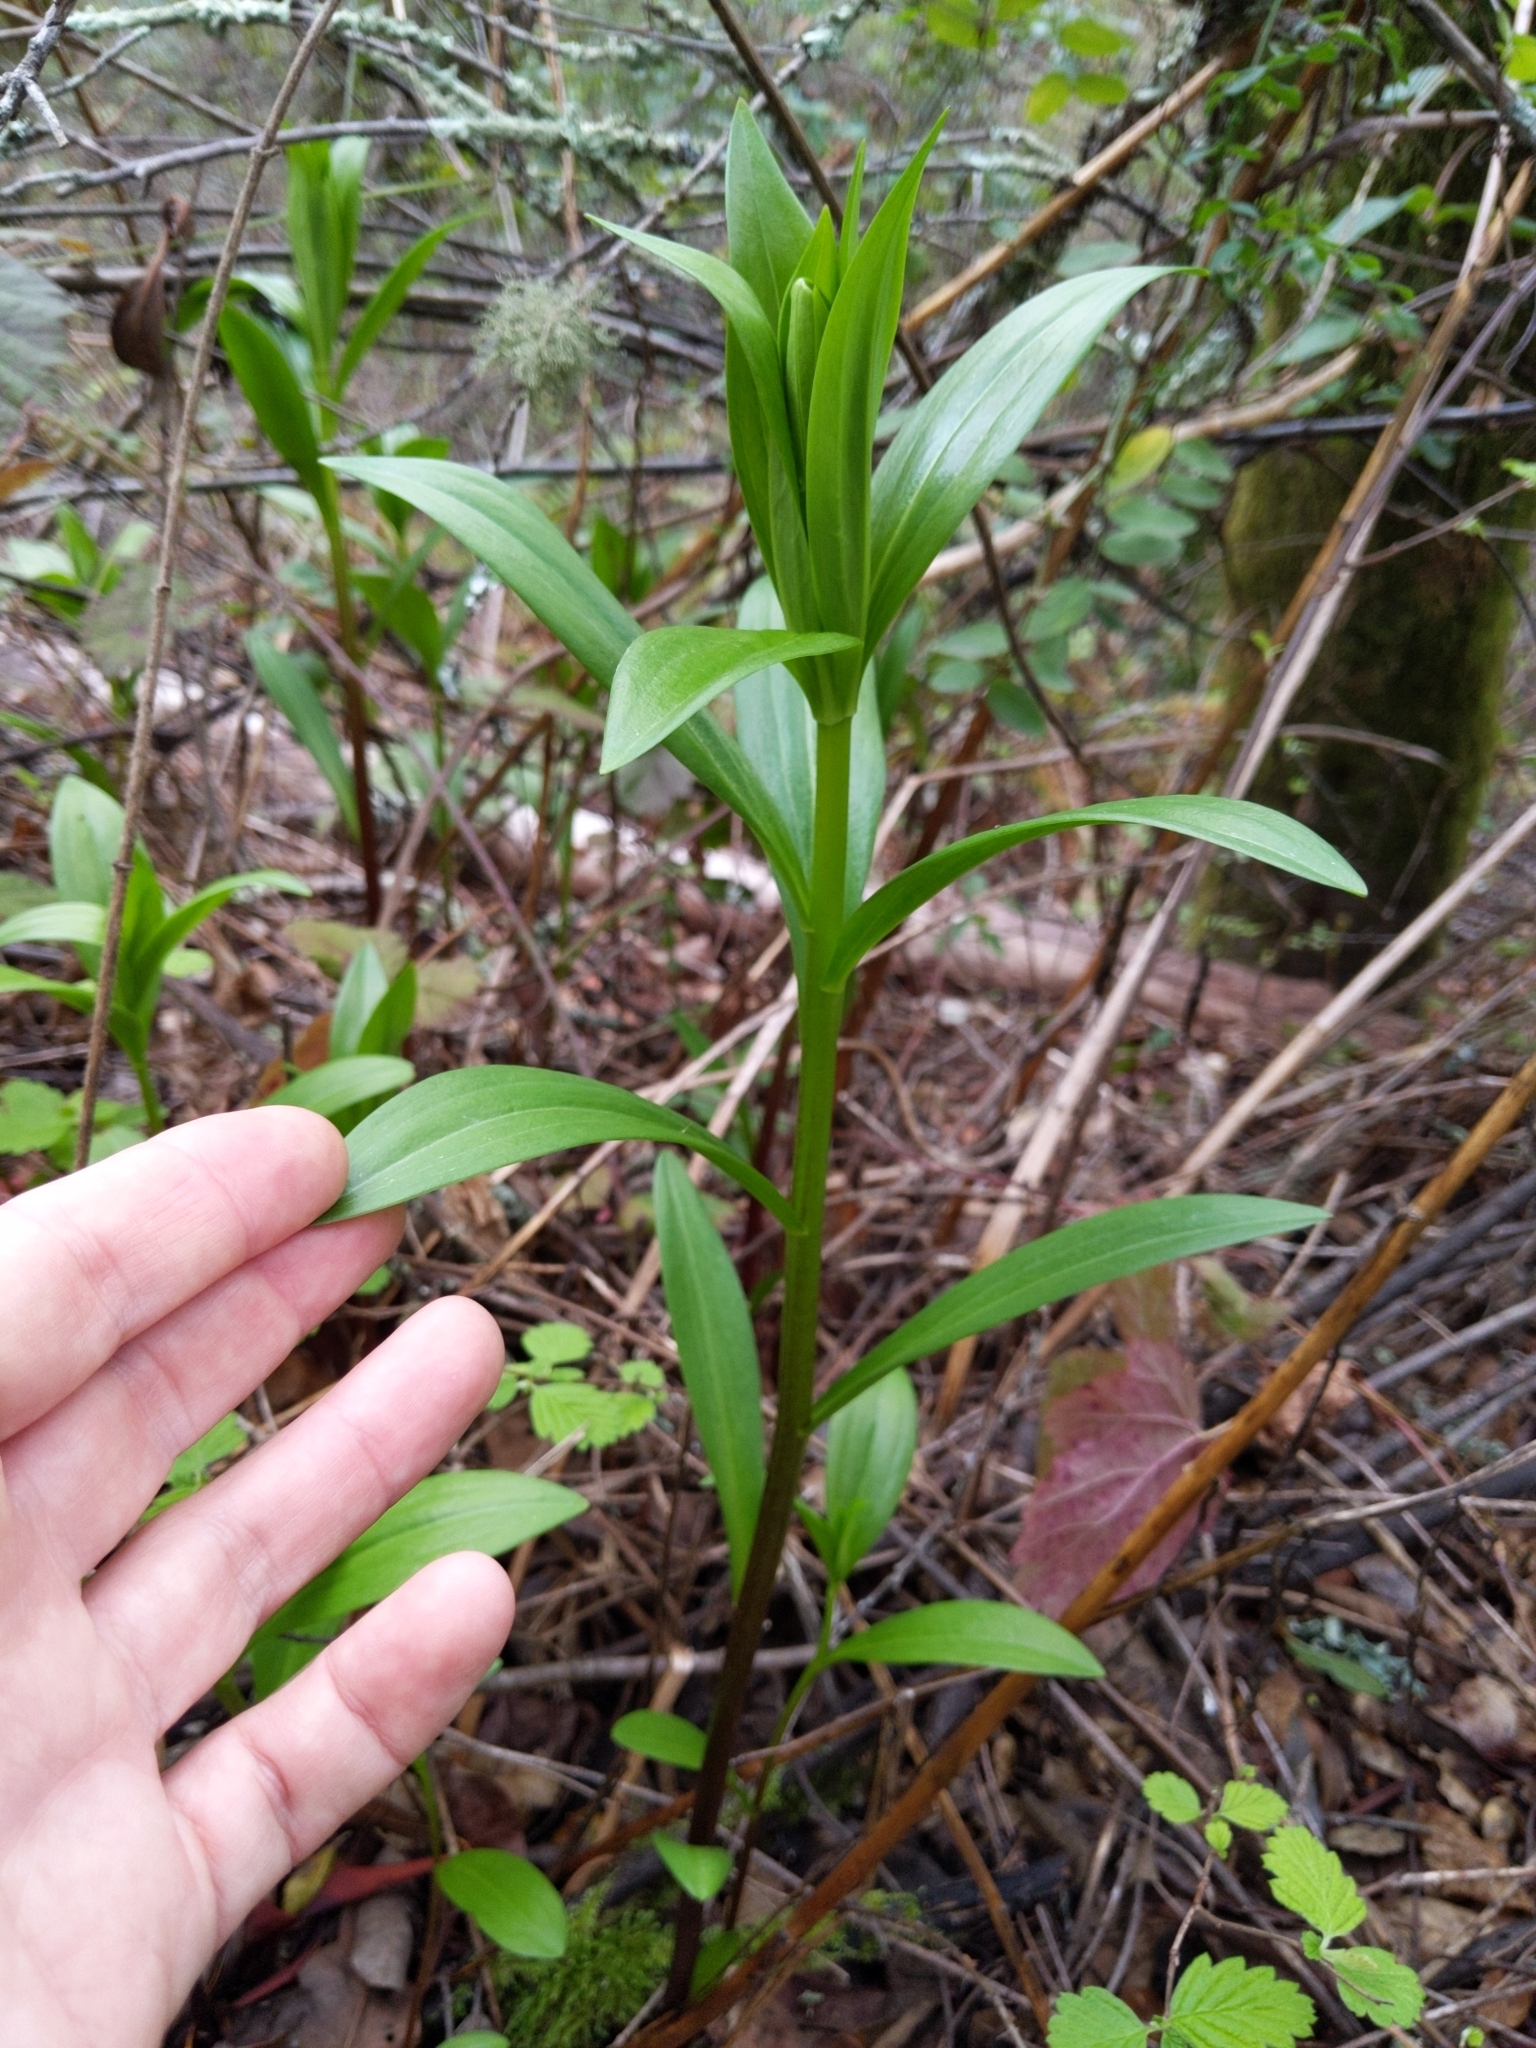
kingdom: Plantae
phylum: Tracheophyta
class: Liliopsida
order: Liliales
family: Liliaceae
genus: Lilium
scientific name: Lilium pardalinum
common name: Panther lily
